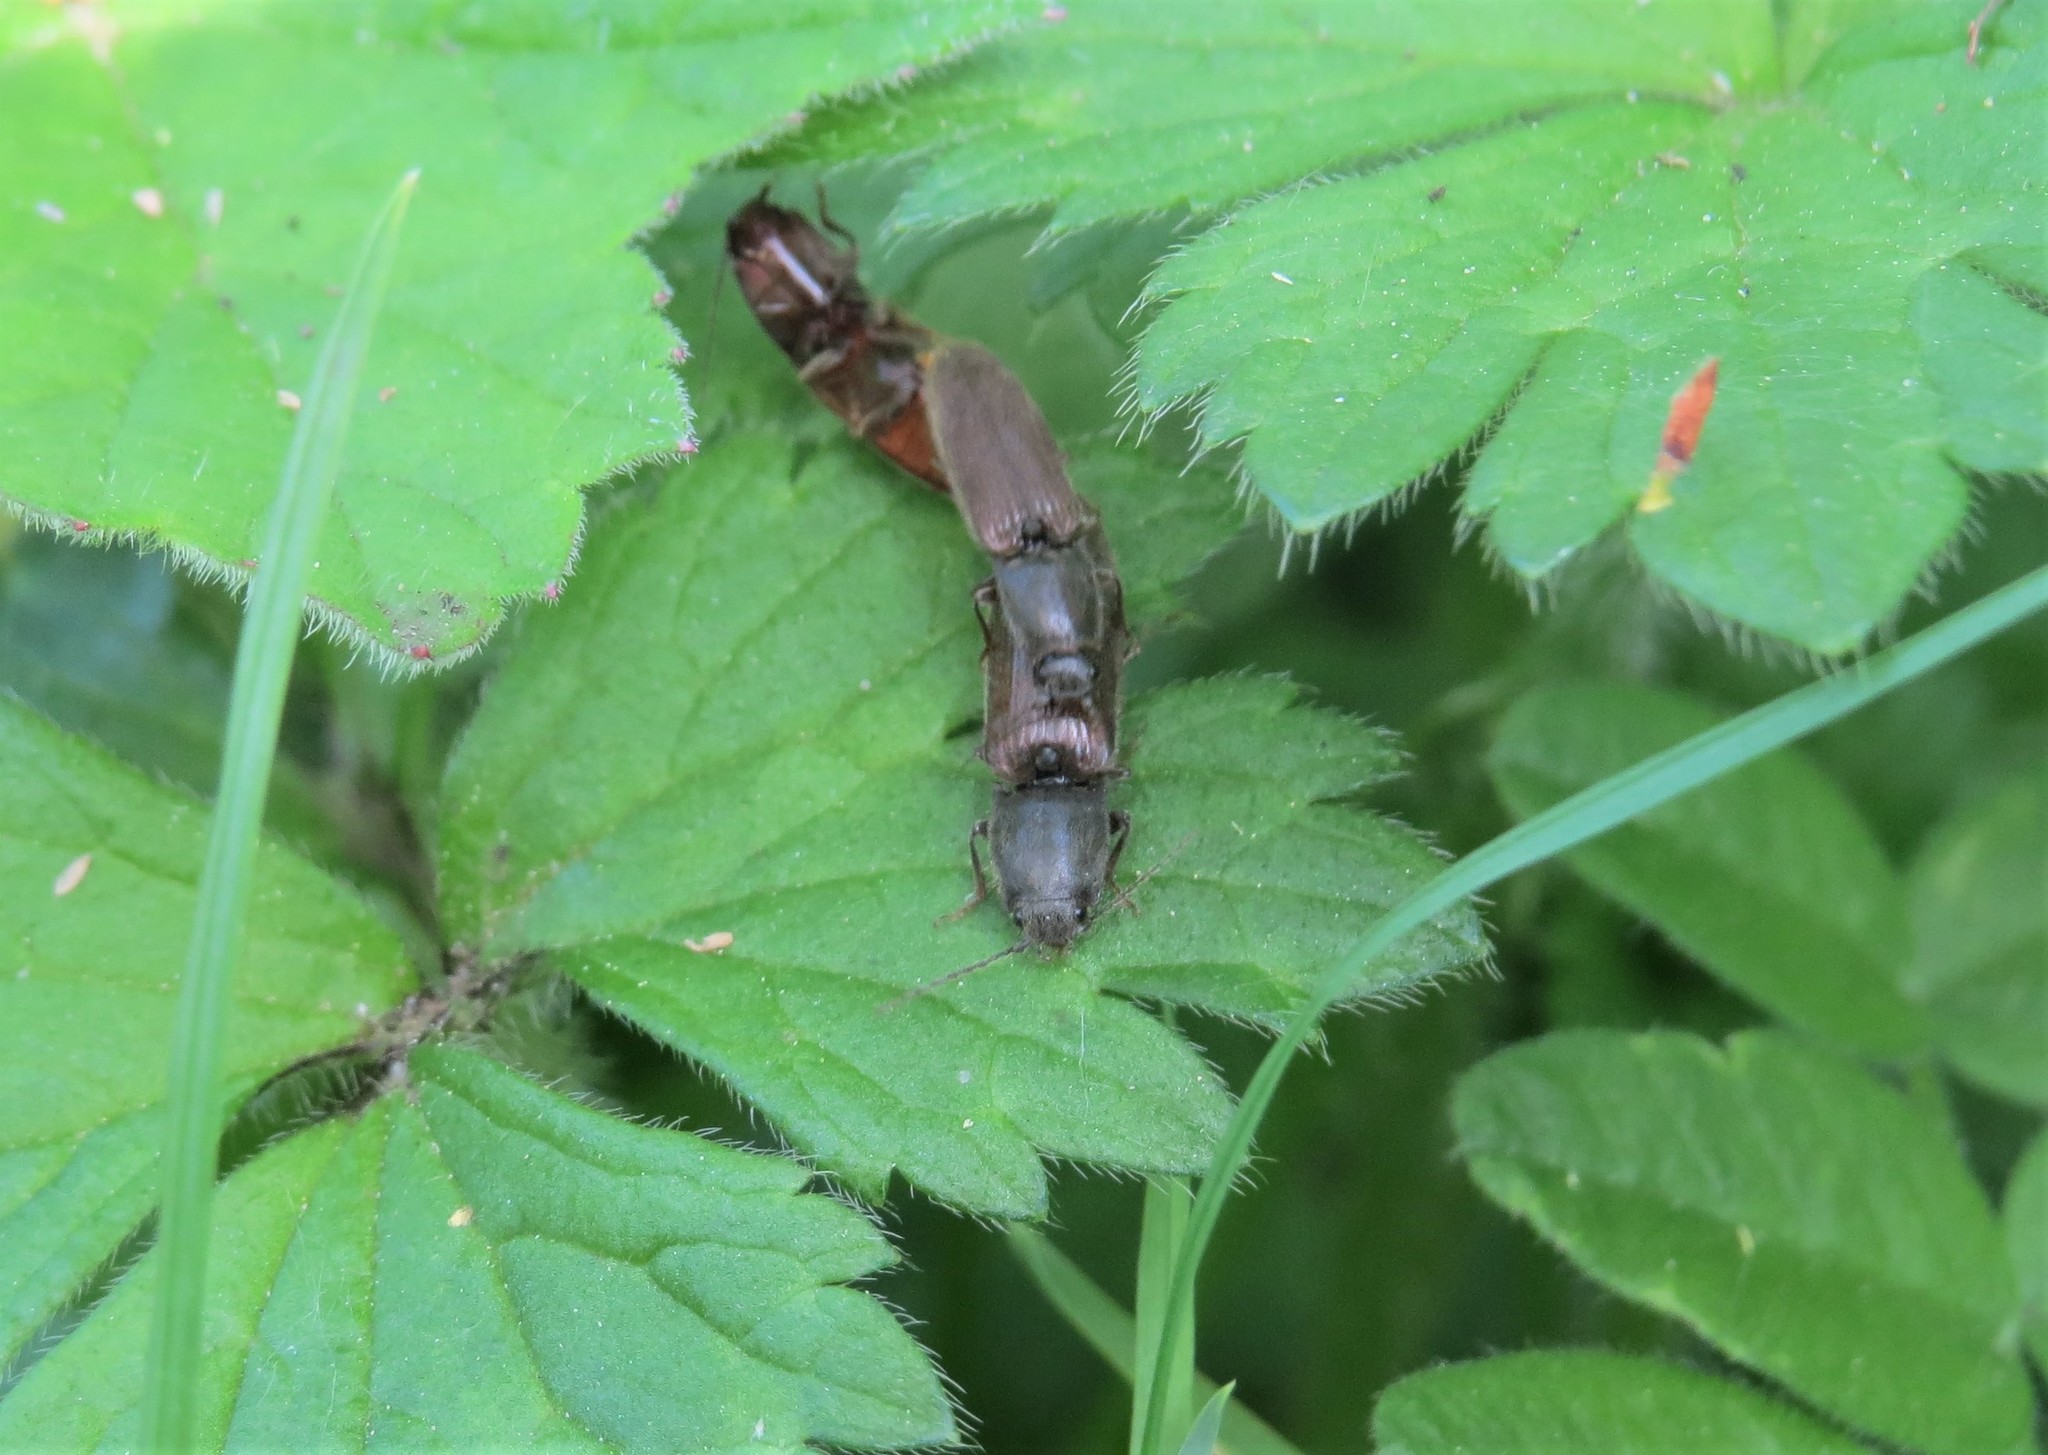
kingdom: Animalia
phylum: Arthropoda
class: Insecta
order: Coleoptera
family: Elateridae
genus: Athous
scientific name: Athous haemorrhoidalis
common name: Red-brown click beetle
